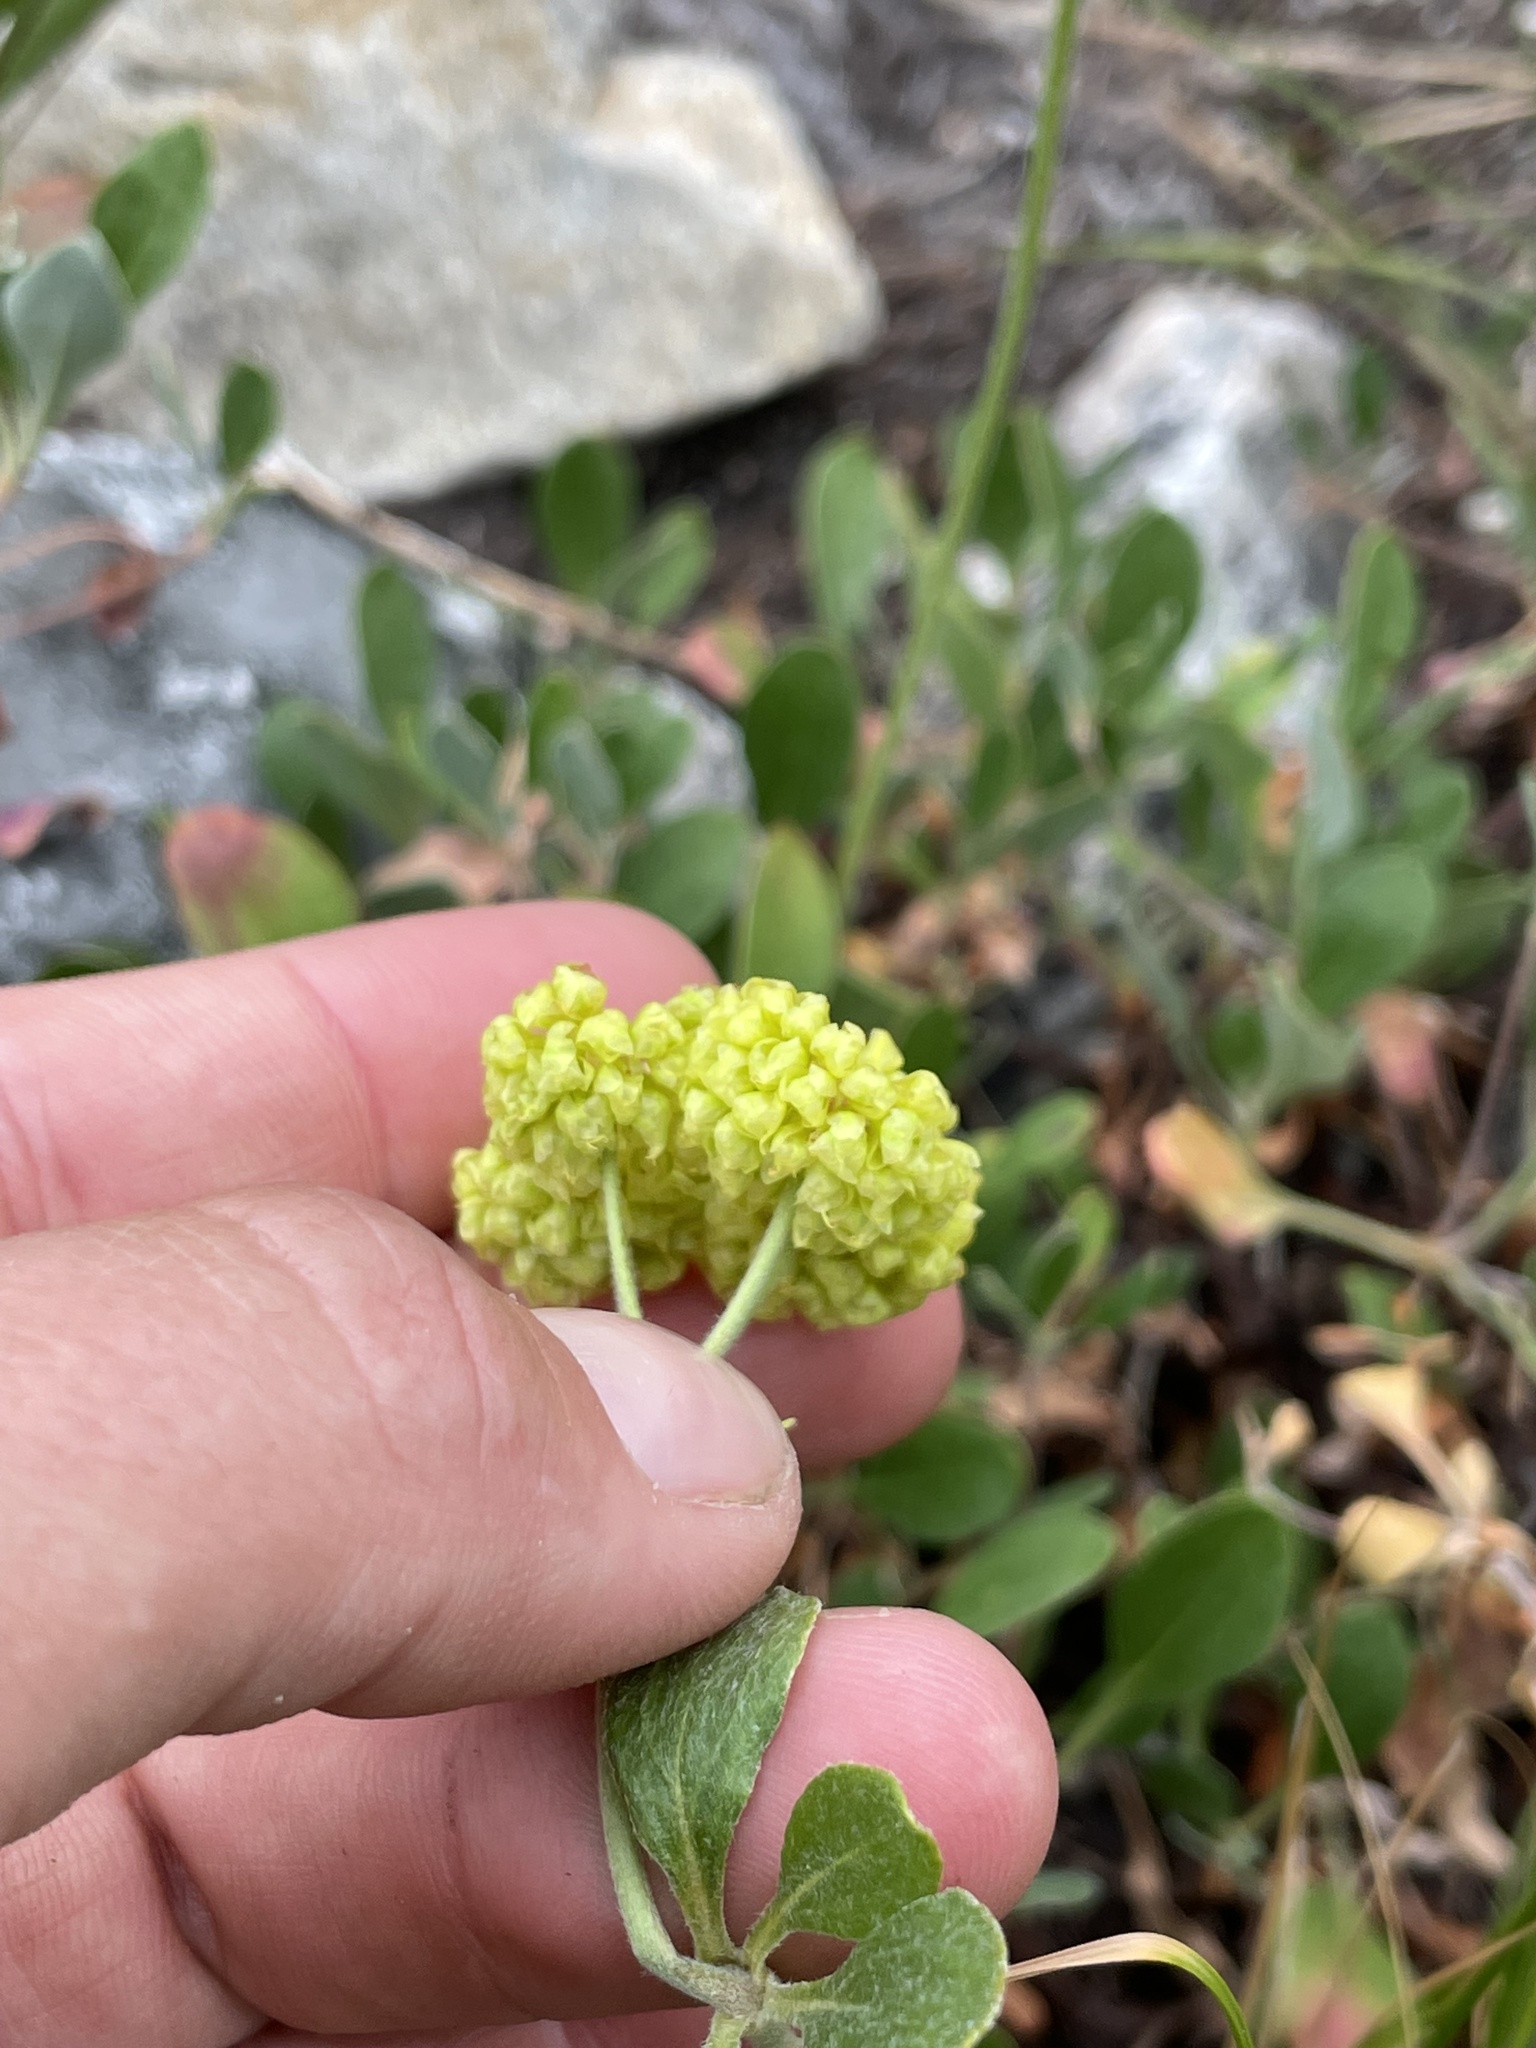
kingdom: Plantae
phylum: Tracheophyta
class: Magnoliopsida
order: Caryophyllales
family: Polygonaceae
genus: Eriogonum
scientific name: Eriogonum umbellatum
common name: Sulfur-buckwheat
